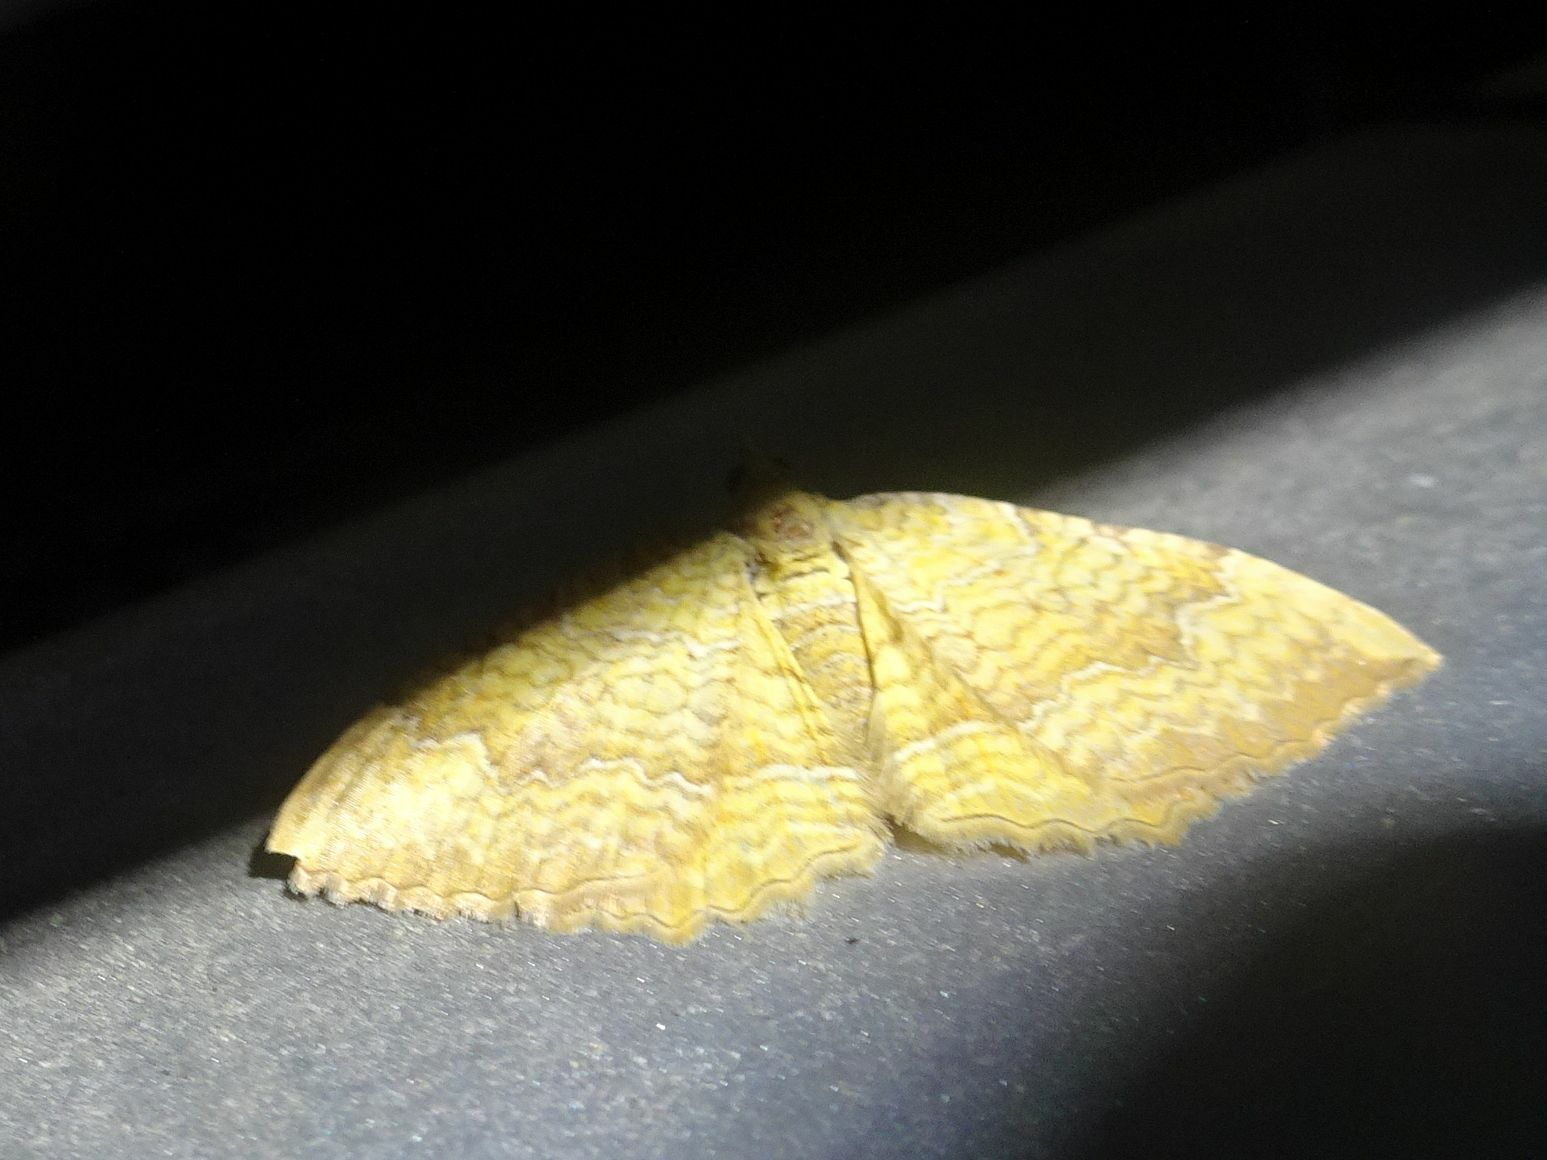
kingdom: Animalia
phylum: Arthropoda
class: Insecta
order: Lepidoptera
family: Geometridae
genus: Camptogramma
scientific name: Camptogramma bilineata
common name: Yellow shell
